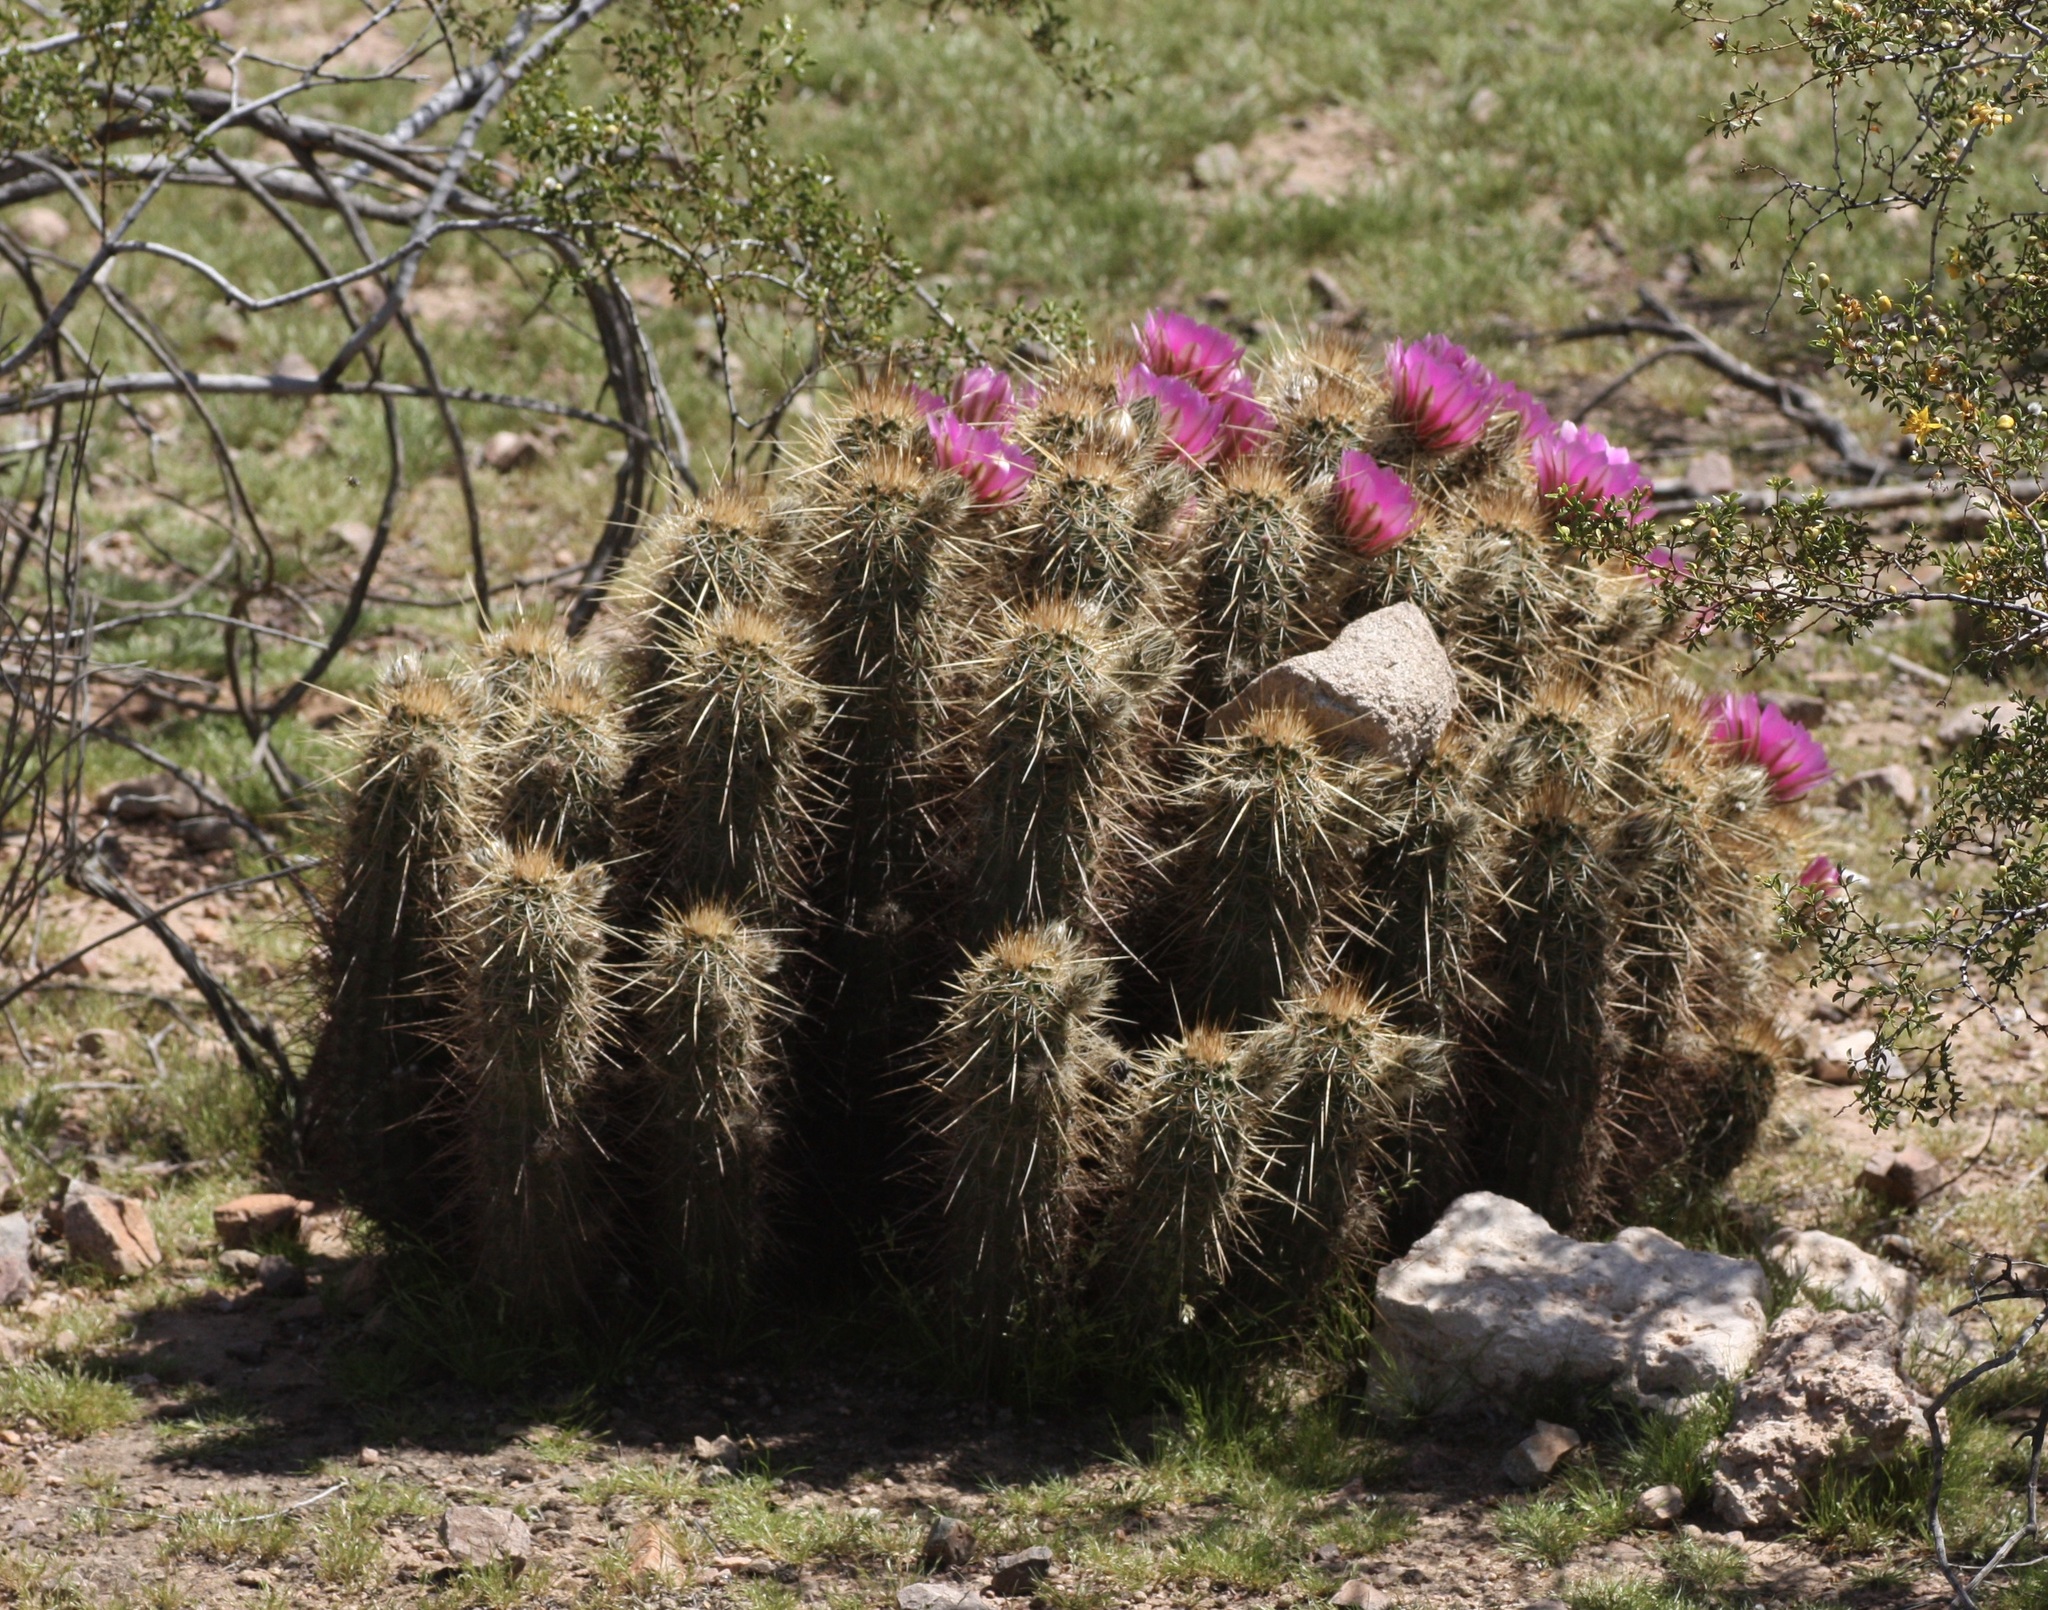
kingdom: Plantae
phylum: Tracheophyta
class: Magnoliopsida
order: Caryophyllales
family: Cactaceae
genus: Echinocereus
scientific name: Echinocereus engelmannii
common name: Engelmann's hedgehog cactus
